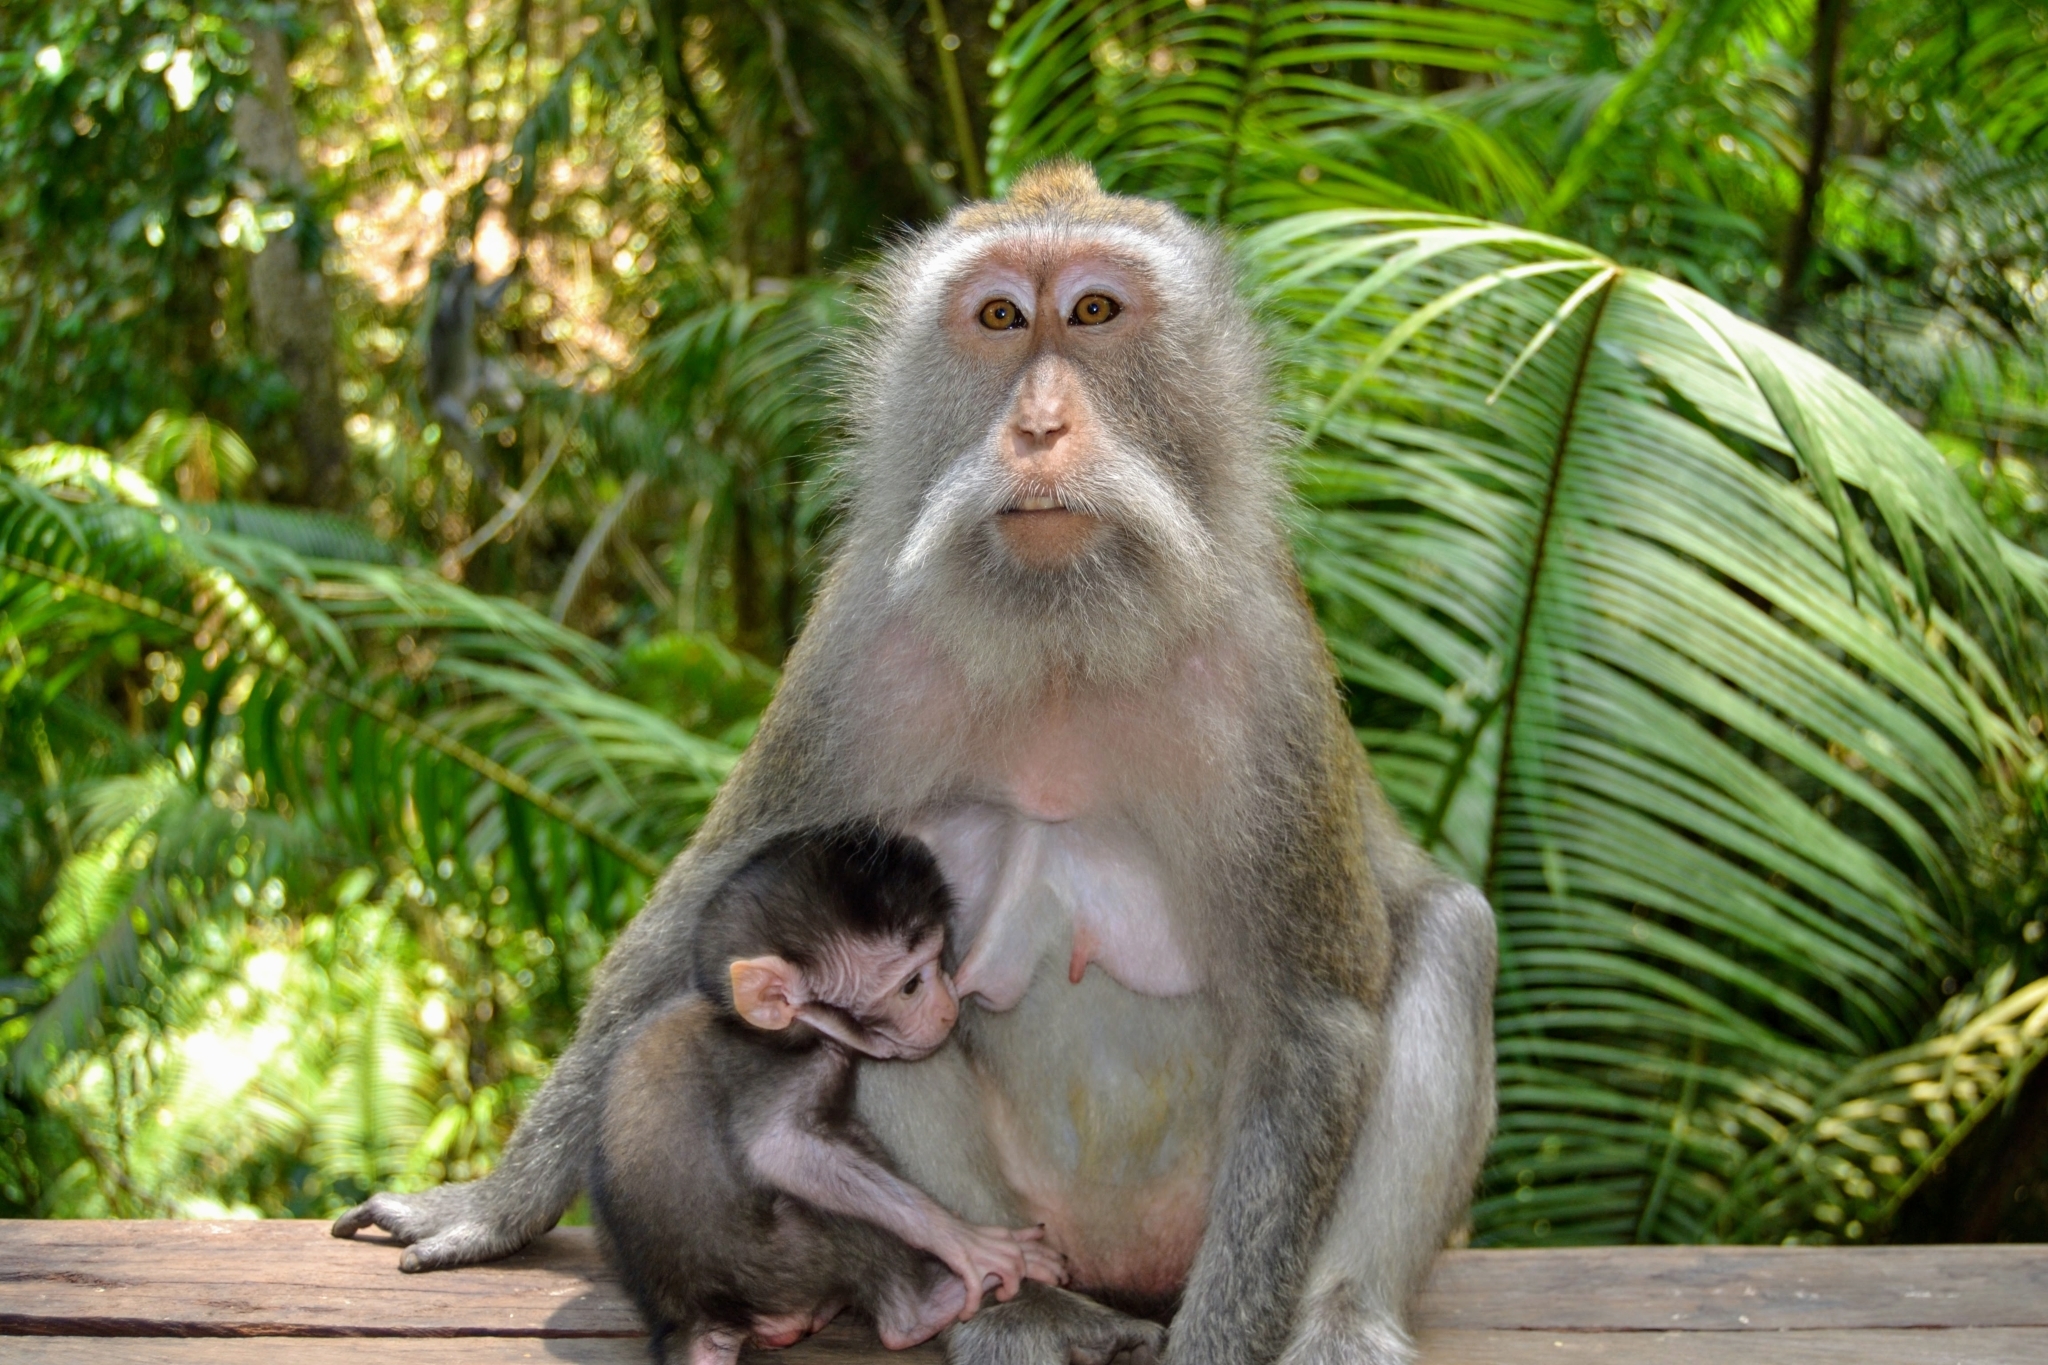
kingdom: Animalia
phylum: Chordata
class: Mammalia
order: Primates
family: Cercopithecidae
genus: Macaca
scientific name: Macaca fascicularis
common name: Crab-eating macaque
